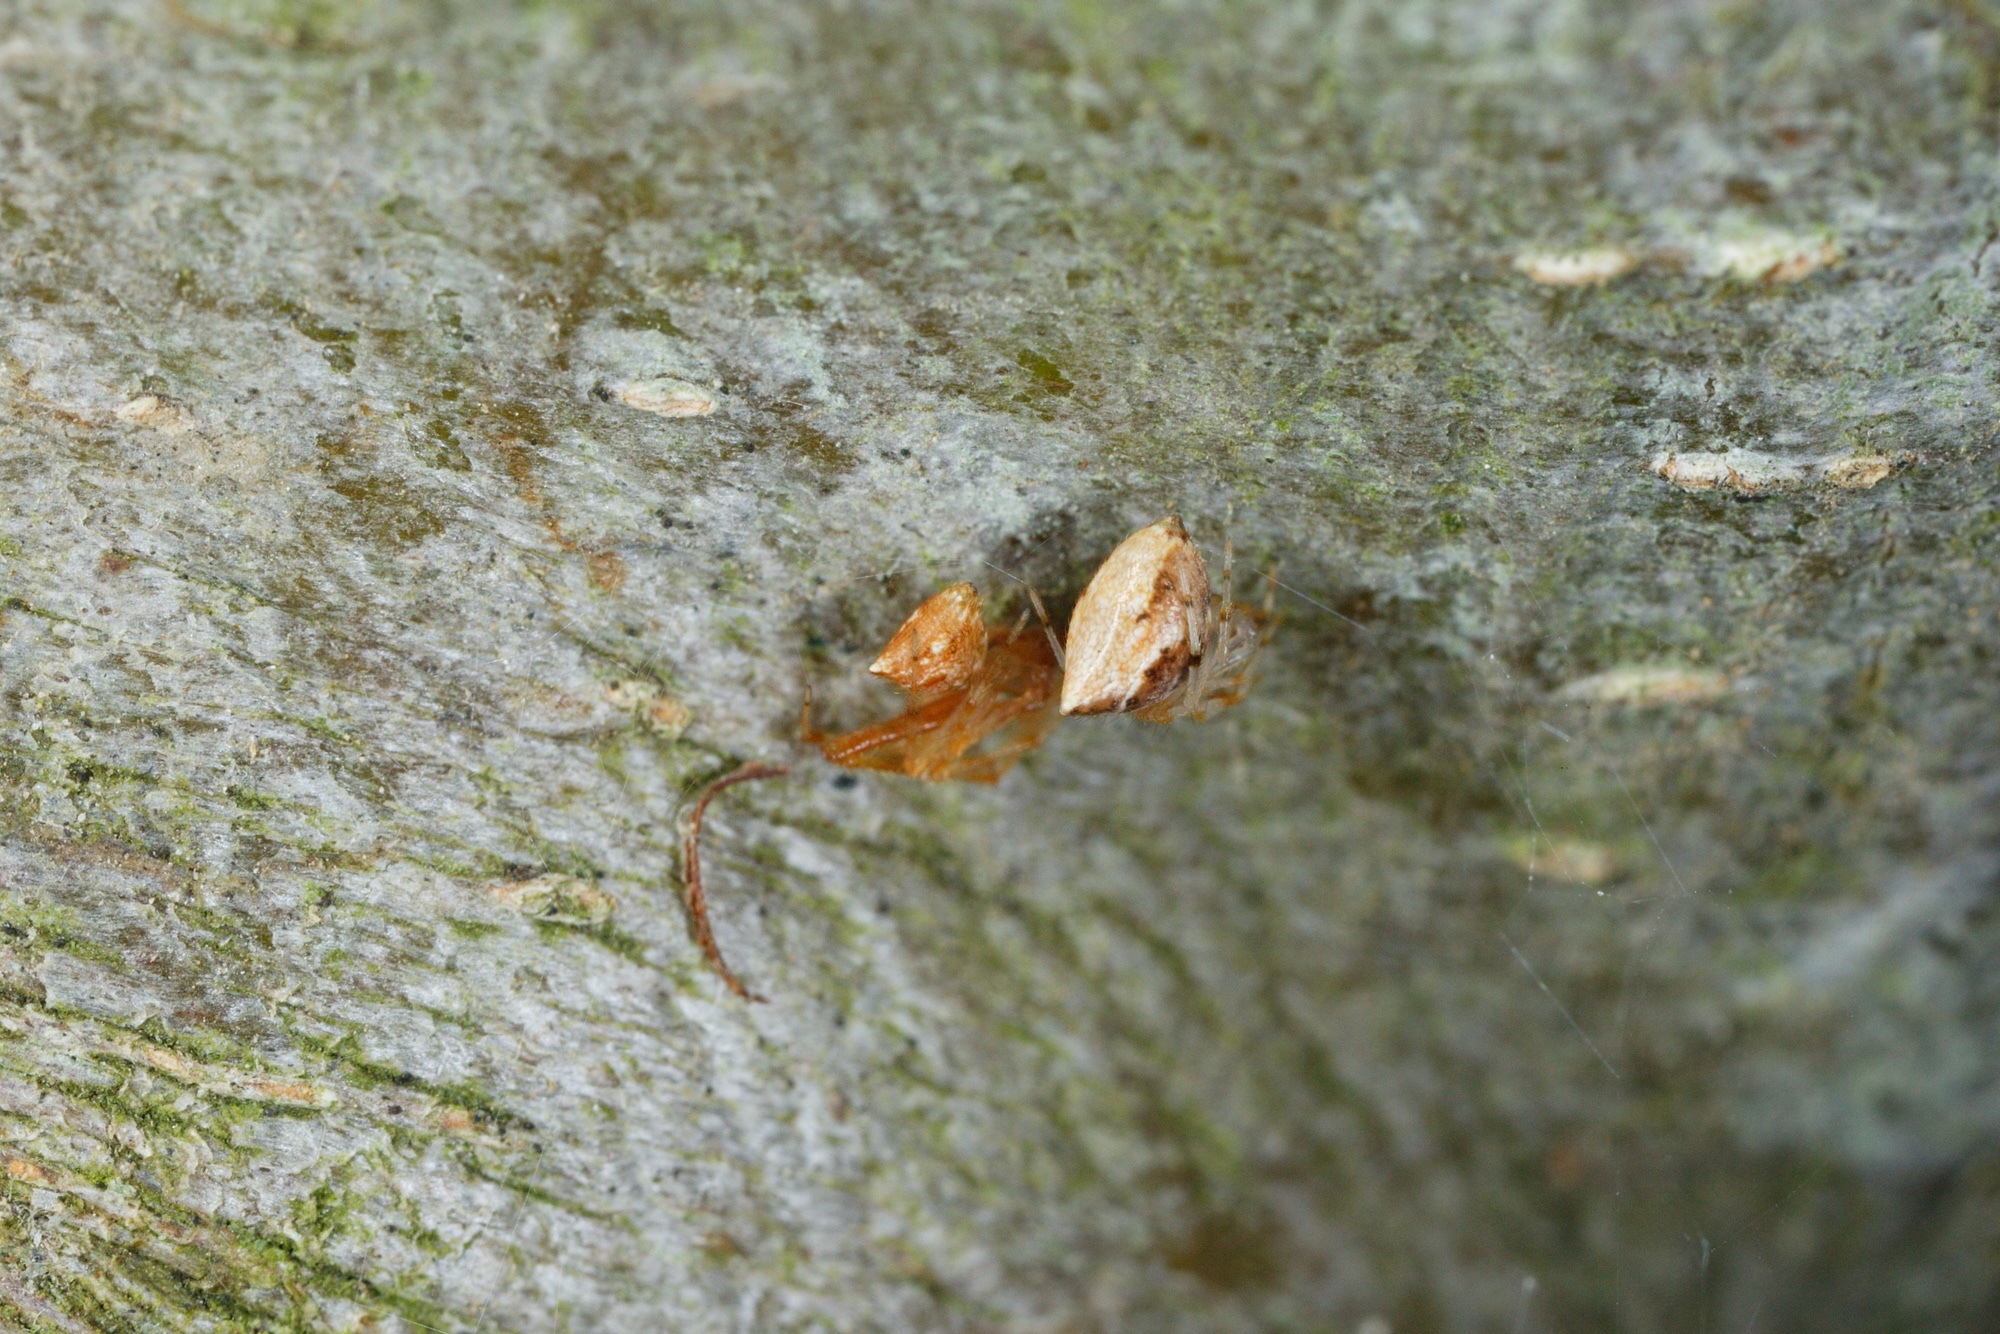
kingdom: Animalia
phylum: Arthropoda
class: Arachnida
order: Araneae
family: Theridiidae
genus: Cryptachaea
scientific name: Cryptachaea meraukensis
